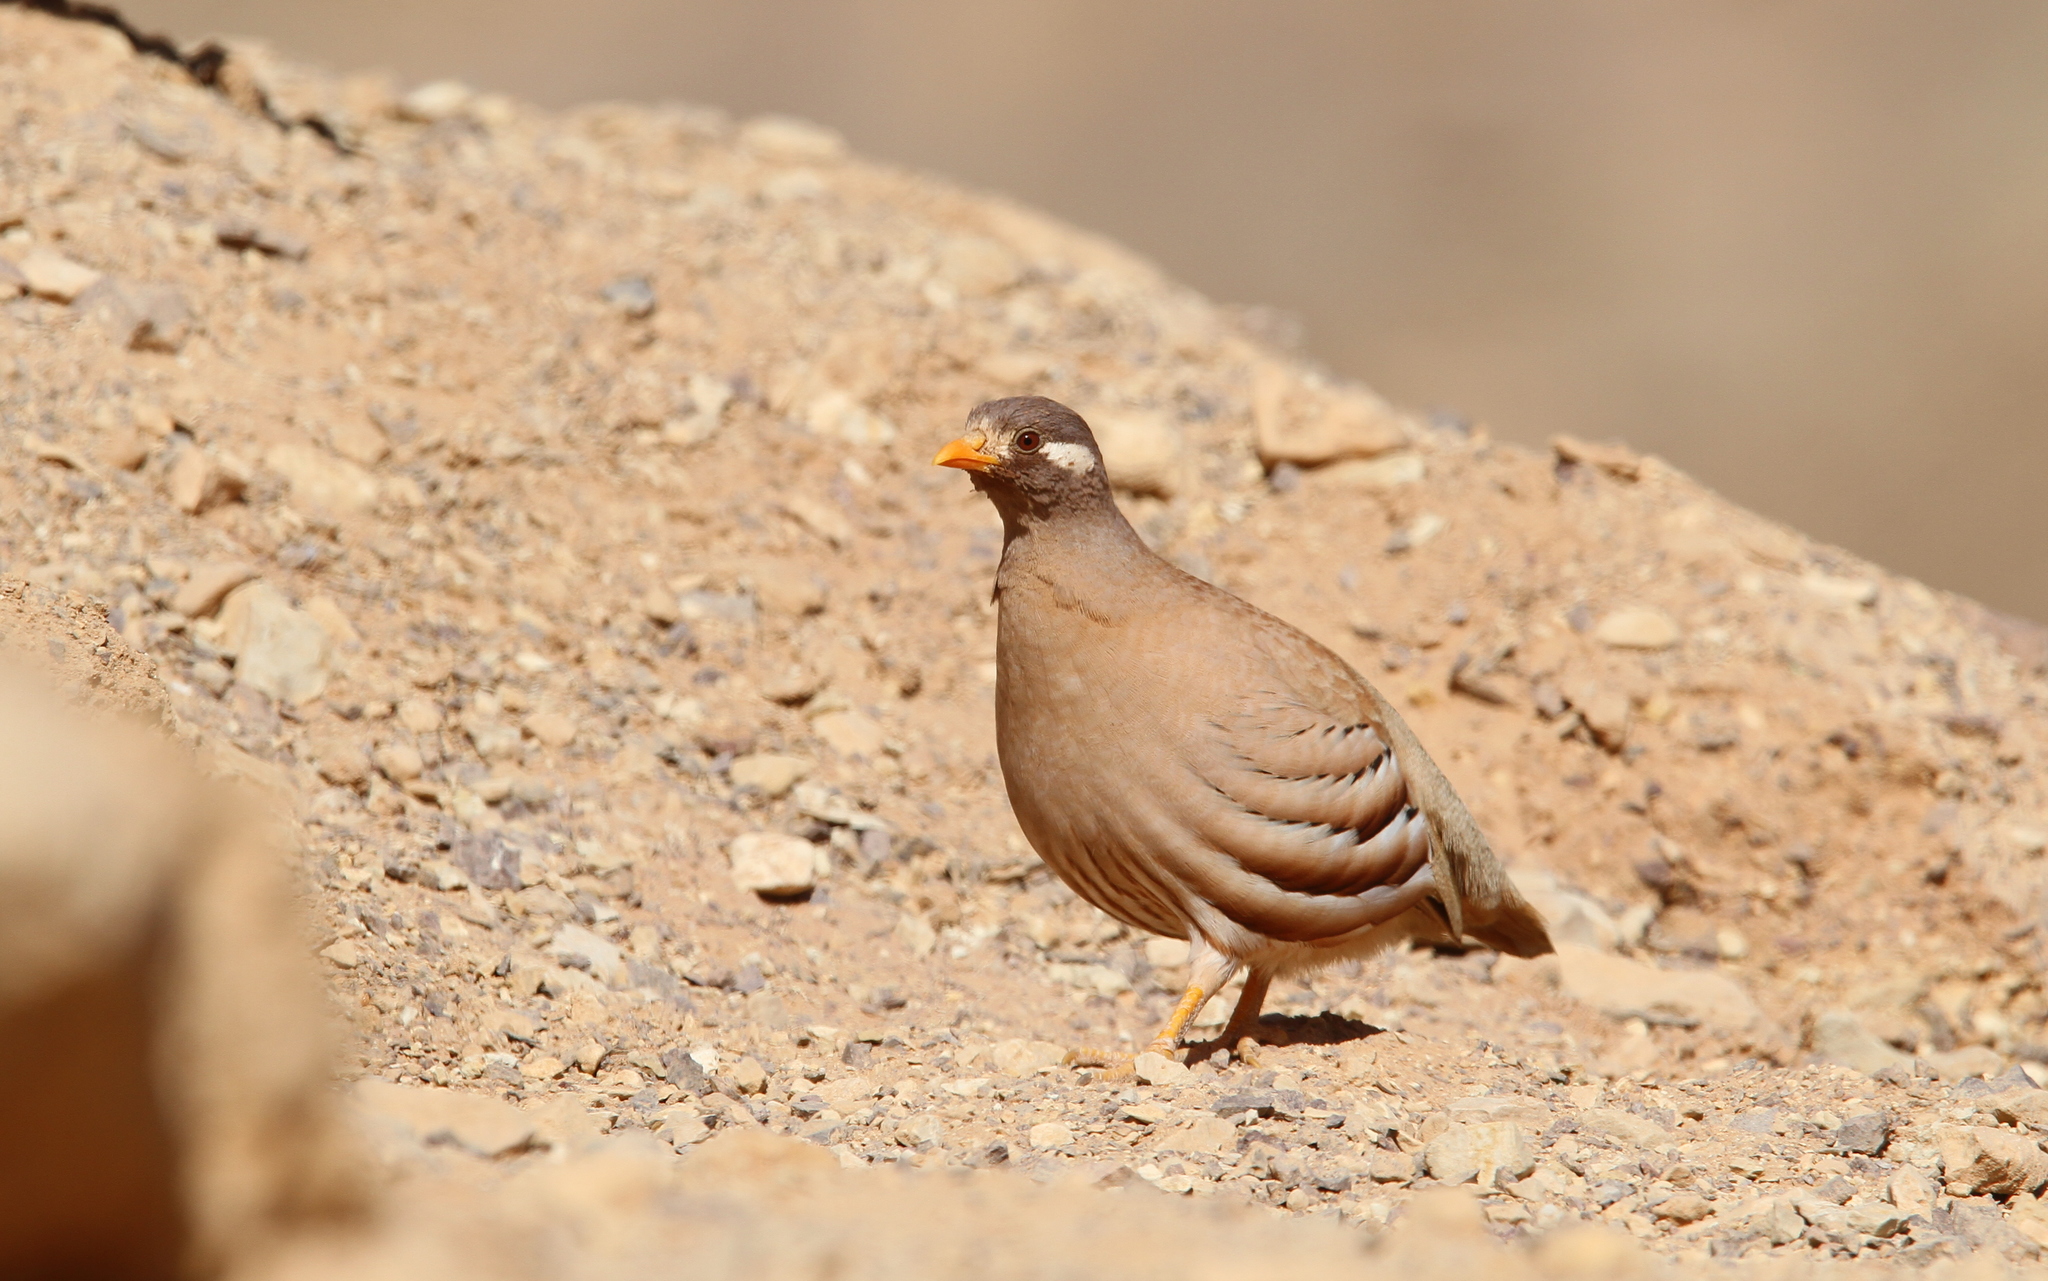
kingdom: Animalia
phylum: Chordata
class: Aves
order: Galliformes
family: Phasianidae
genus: Ammoperdix
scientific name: Ammoperdix heyi
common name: Sand partridge
